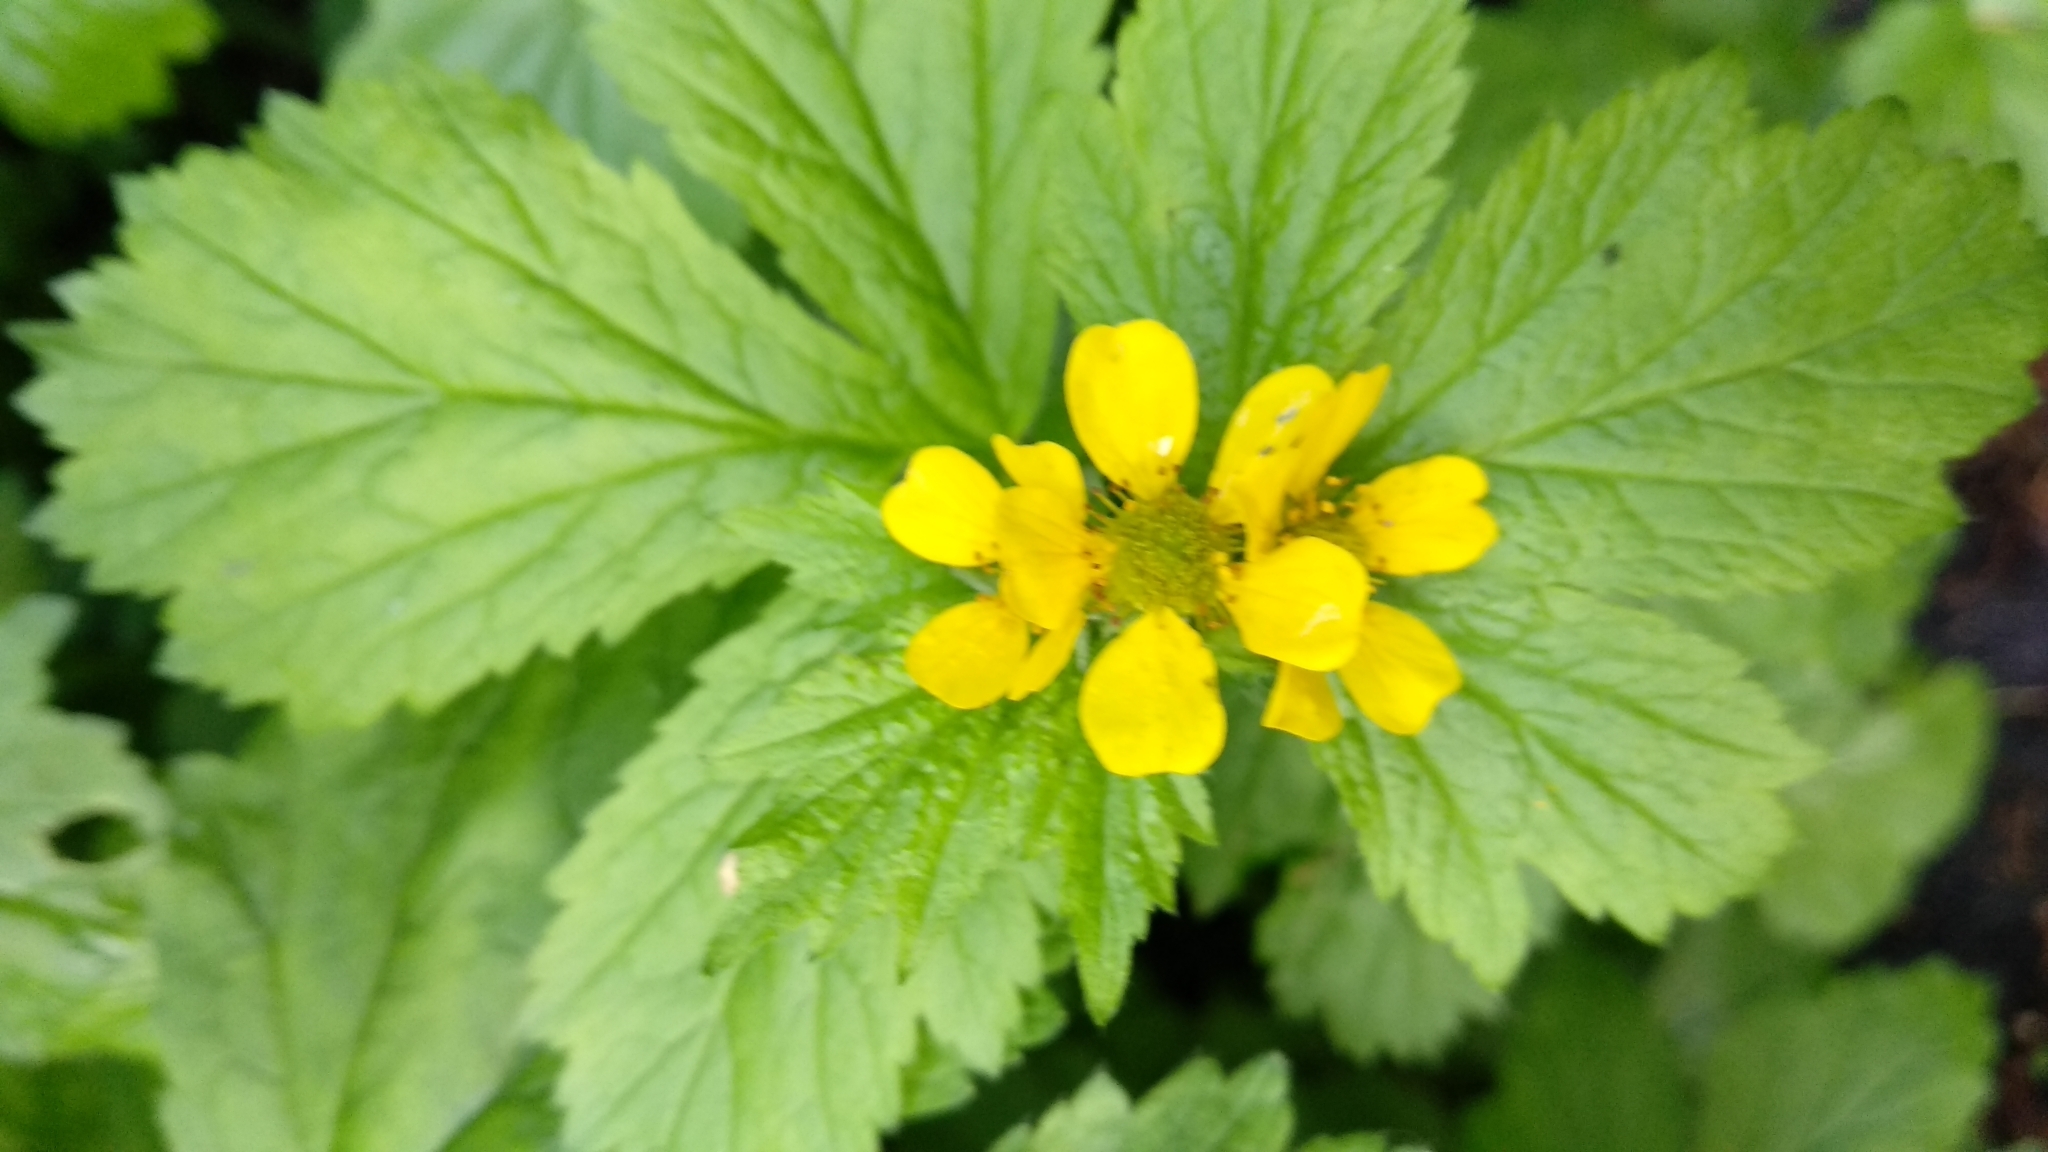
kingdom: Plantae
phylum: Tracheophyta
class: Magnoliopsida
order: Rosales
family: Rosaceae
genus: Geum
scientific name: Geum macrophyllum
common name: Large-leaved avens
